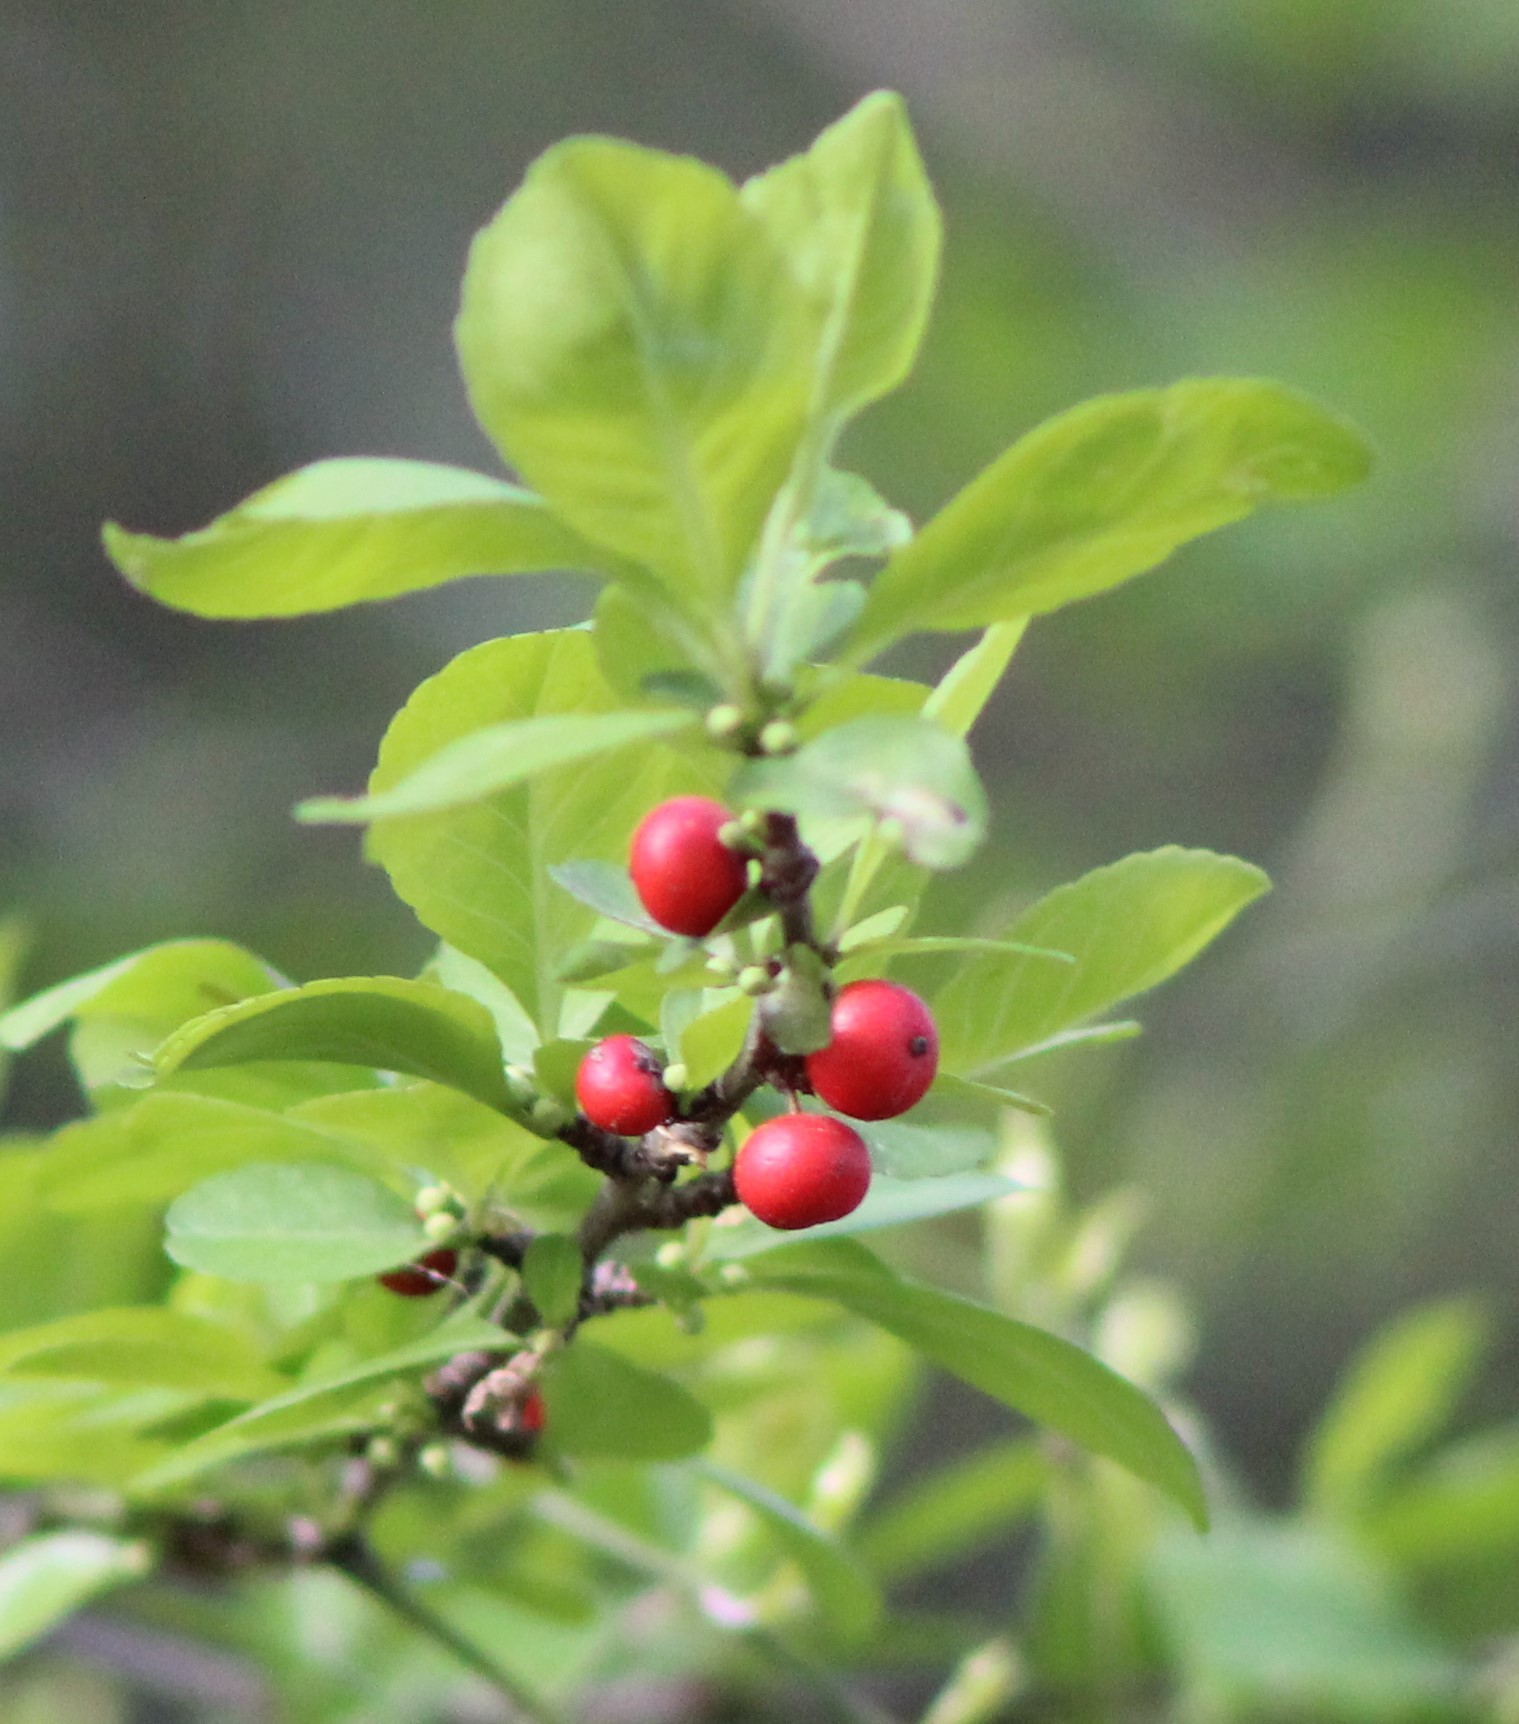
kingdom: Plantae
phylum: Tracheophyta
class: Magnoliopsida
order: Aquifoliales
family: Aquifoliaceae
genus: Ilex
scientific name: Ilex decidua
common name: Possum-haw
